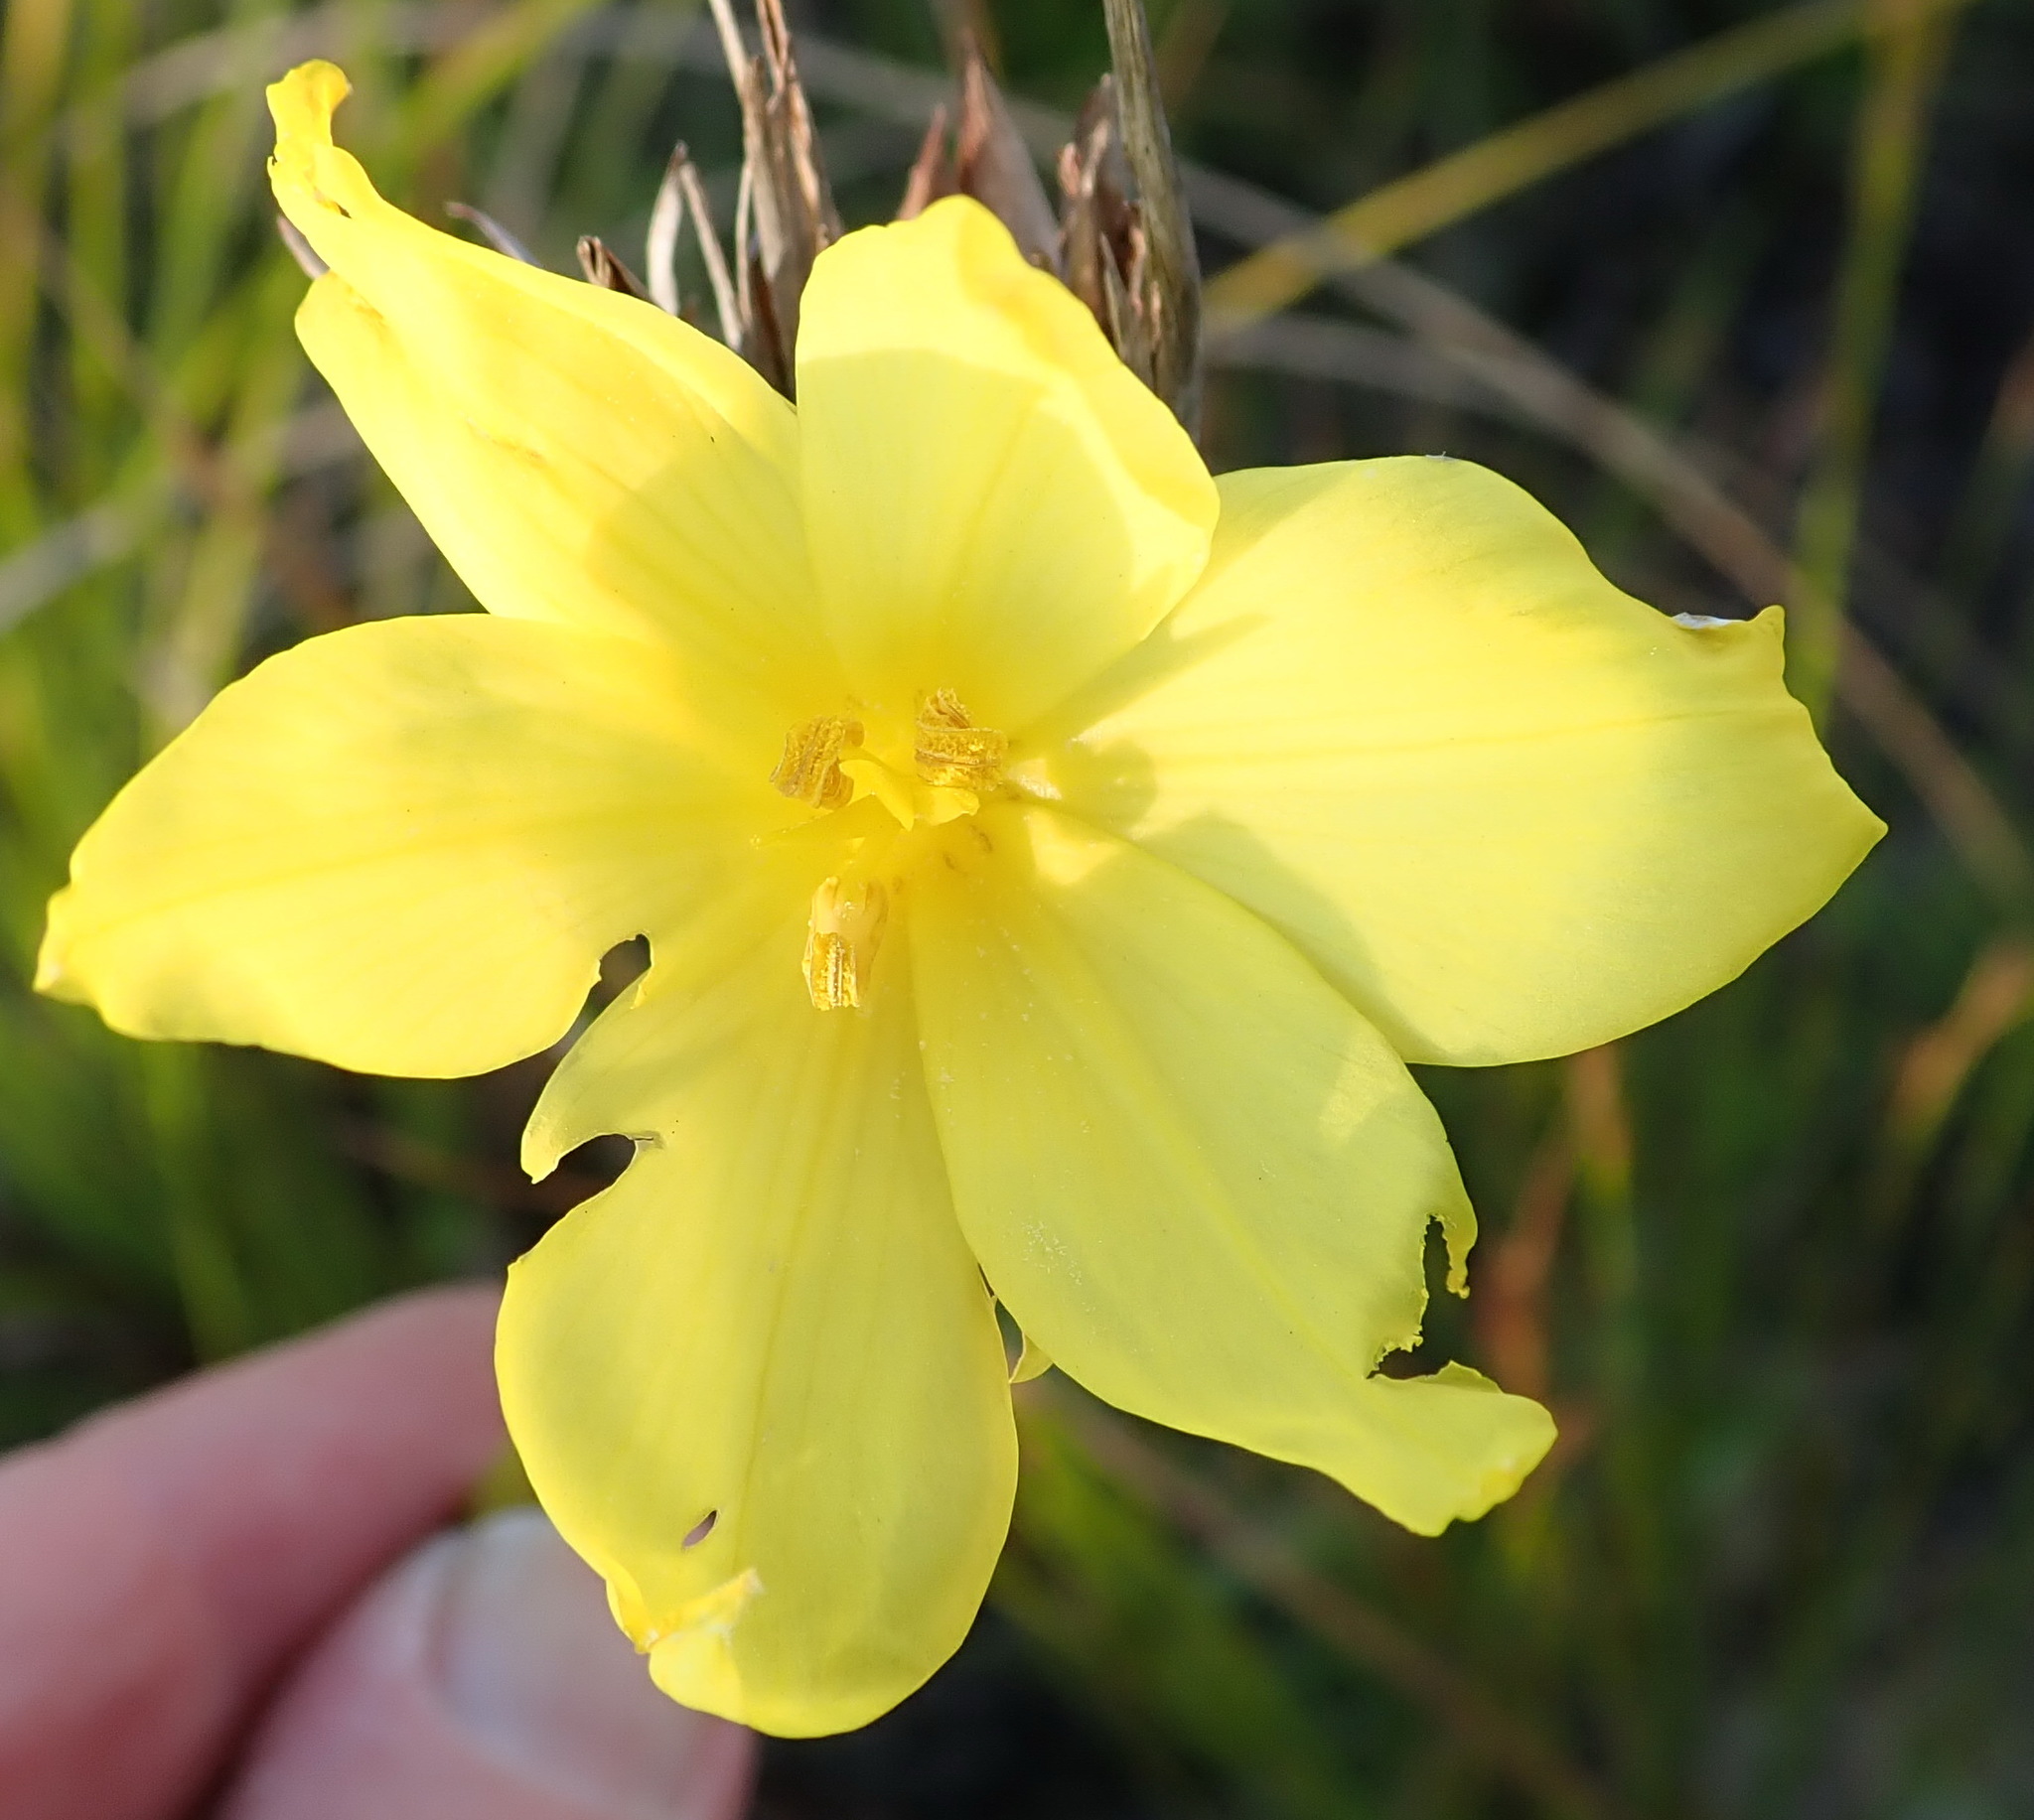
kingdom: Plantae
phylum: Tracheophyta
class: Liliopsida
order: Asparagales
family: Iridaceae
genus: Bobartia
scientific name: Bobartia macrospatha
